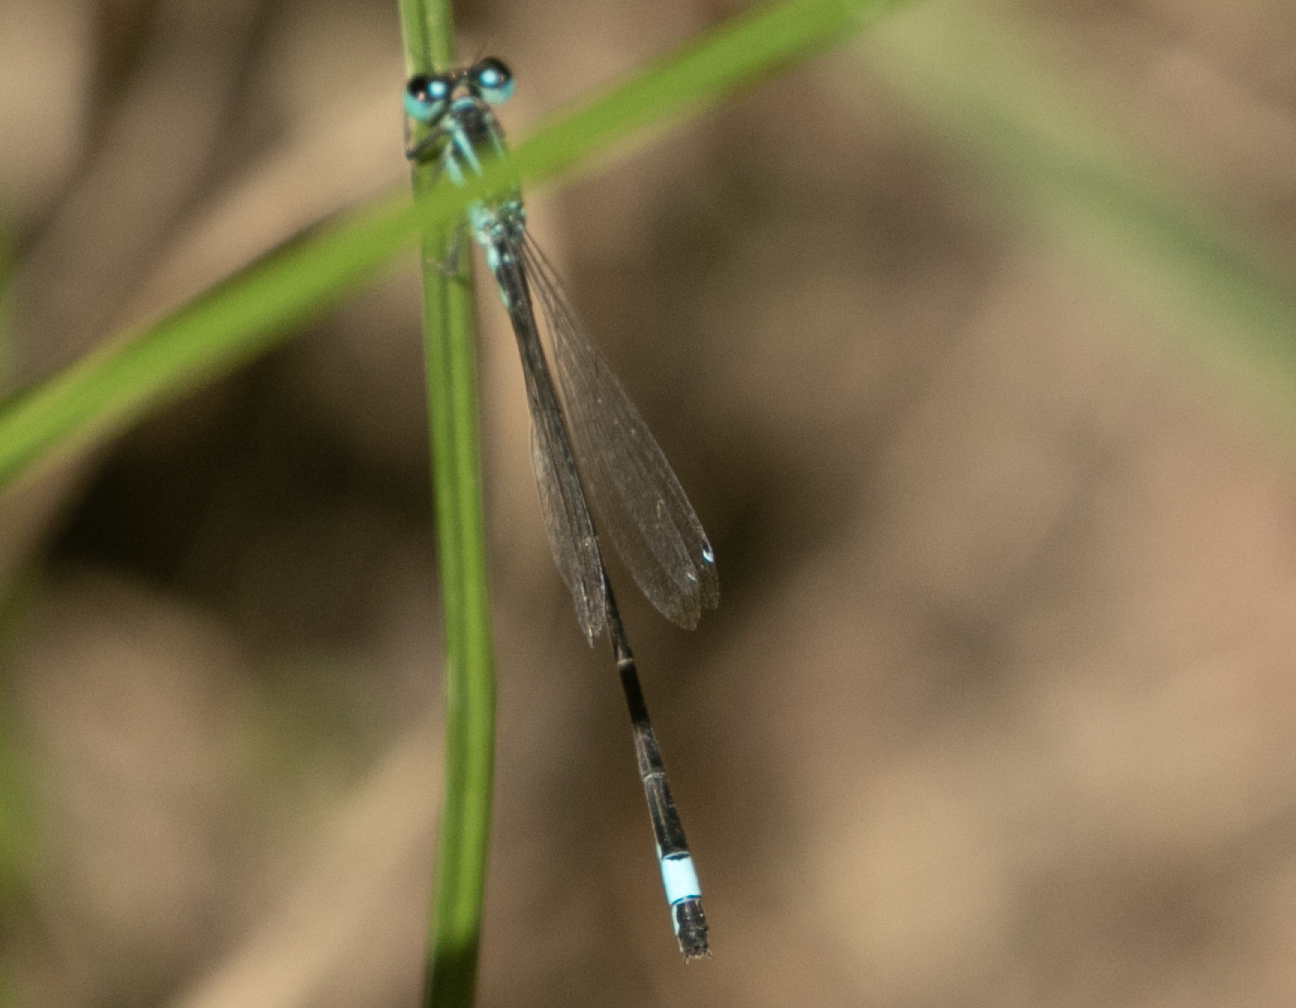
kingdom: Animalia
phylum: Arthropoda
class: Insecta
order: Odonata
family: Coenagrionidae
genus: Ischnura
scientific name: Ischnura elegans
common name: Blue-tailed damselfly
